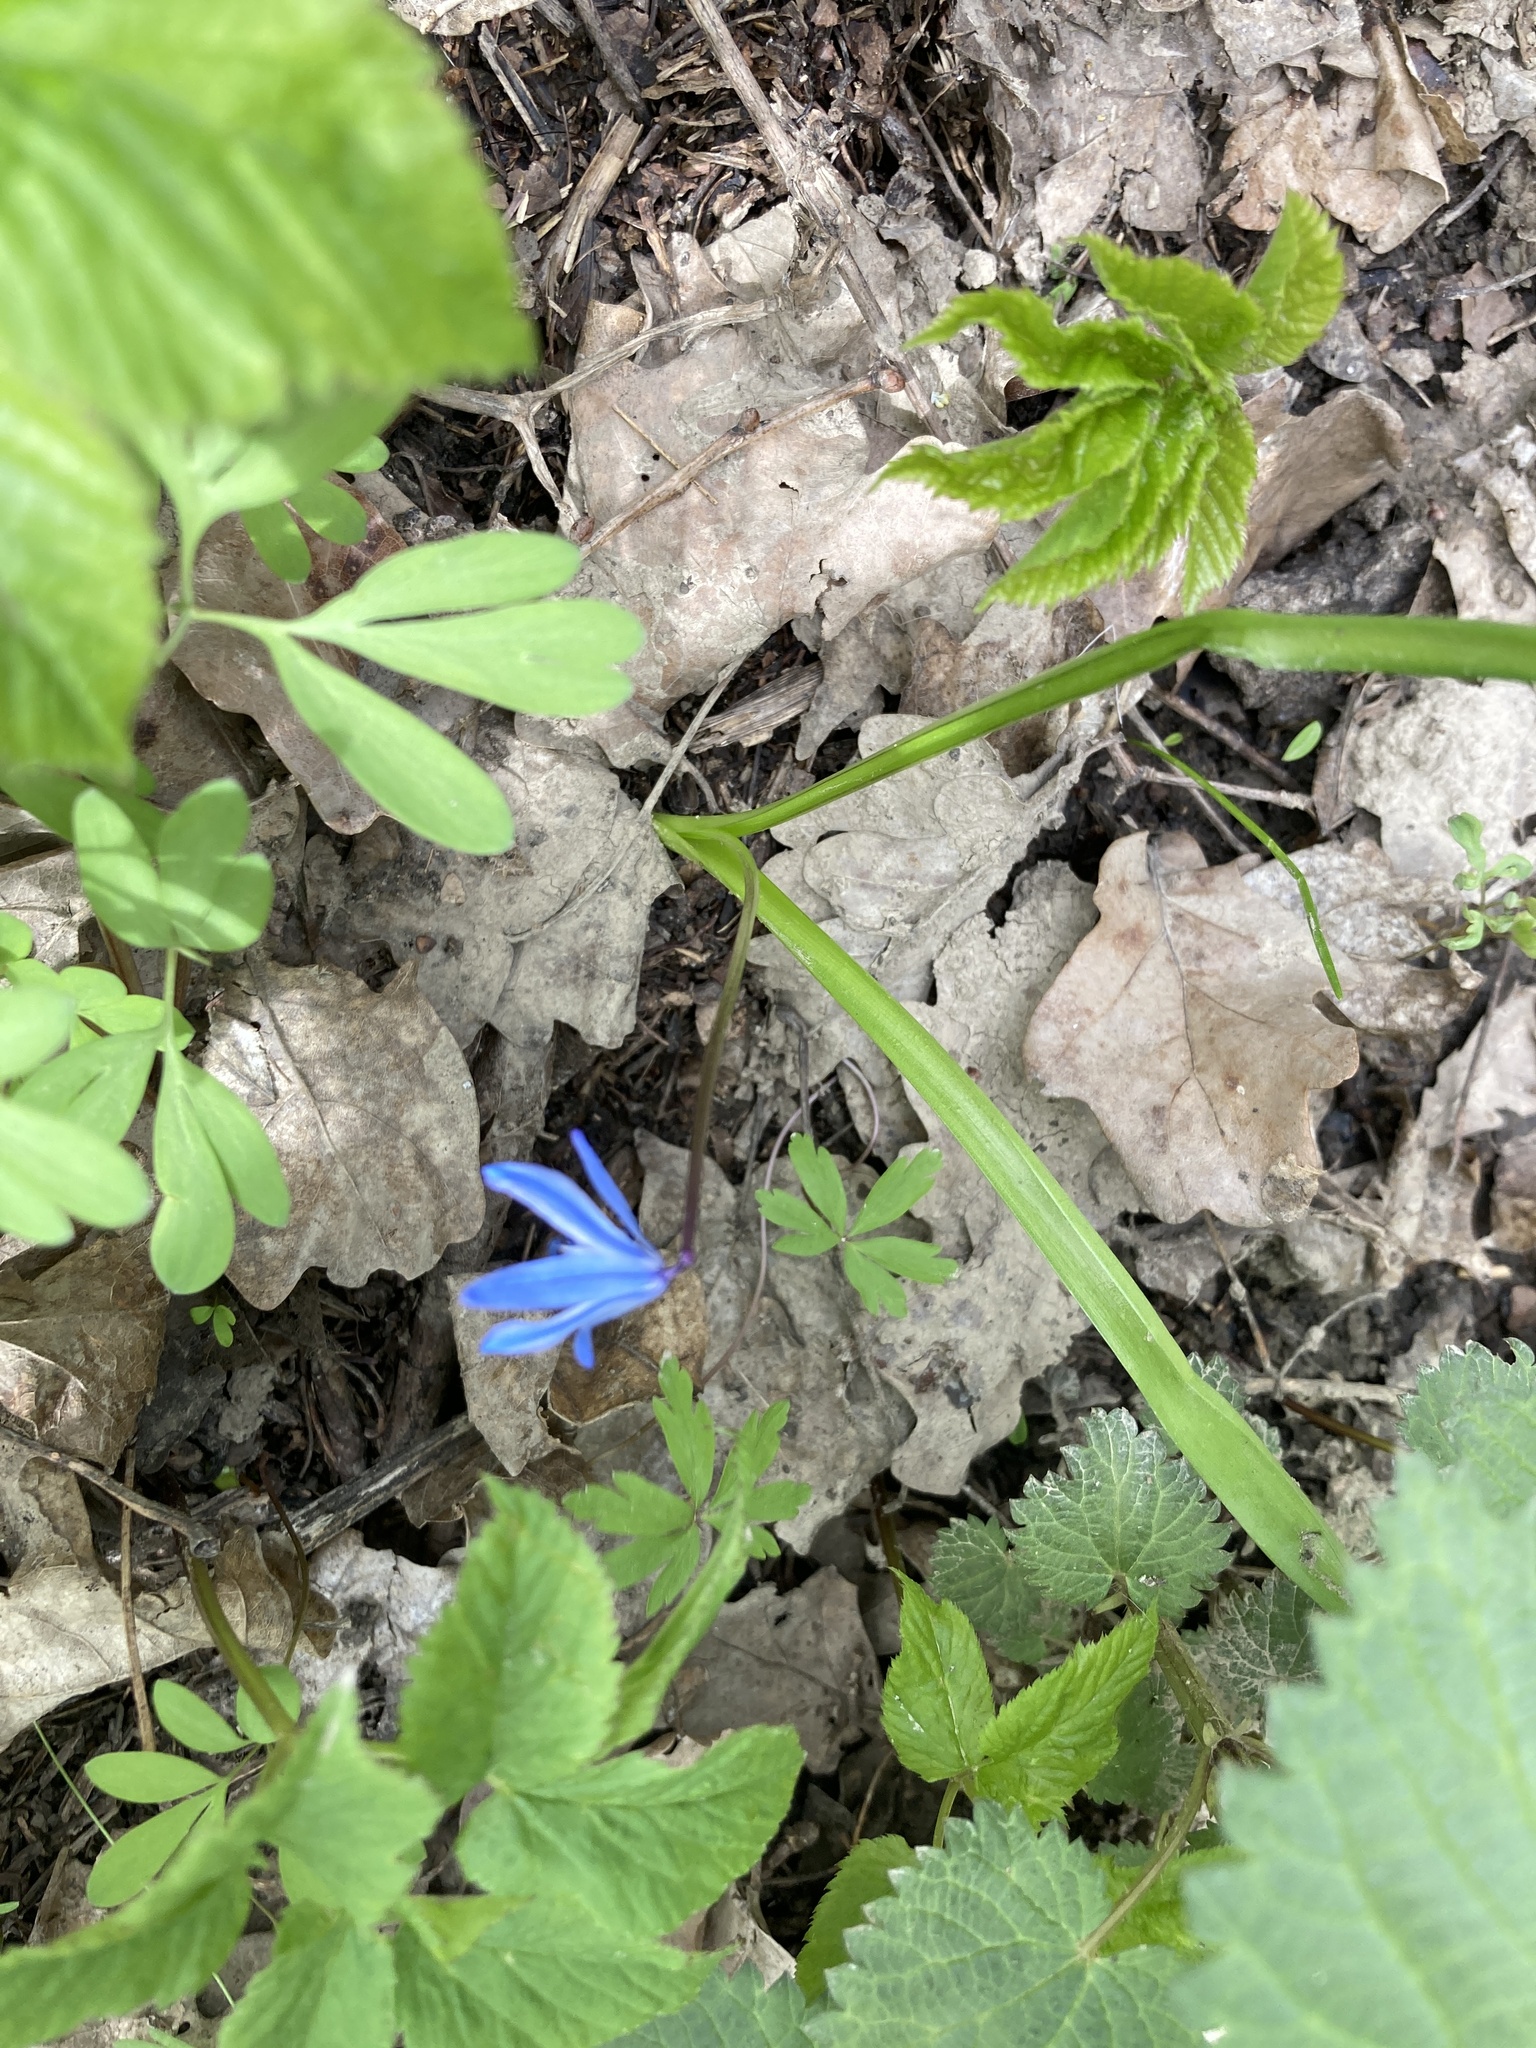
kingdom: Plantae
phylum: Tracheophyta
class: Liliopsida
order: Asparagales
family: Asparagaceae
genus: Scilla
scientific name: Scilla siberica
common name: Siberian squill
